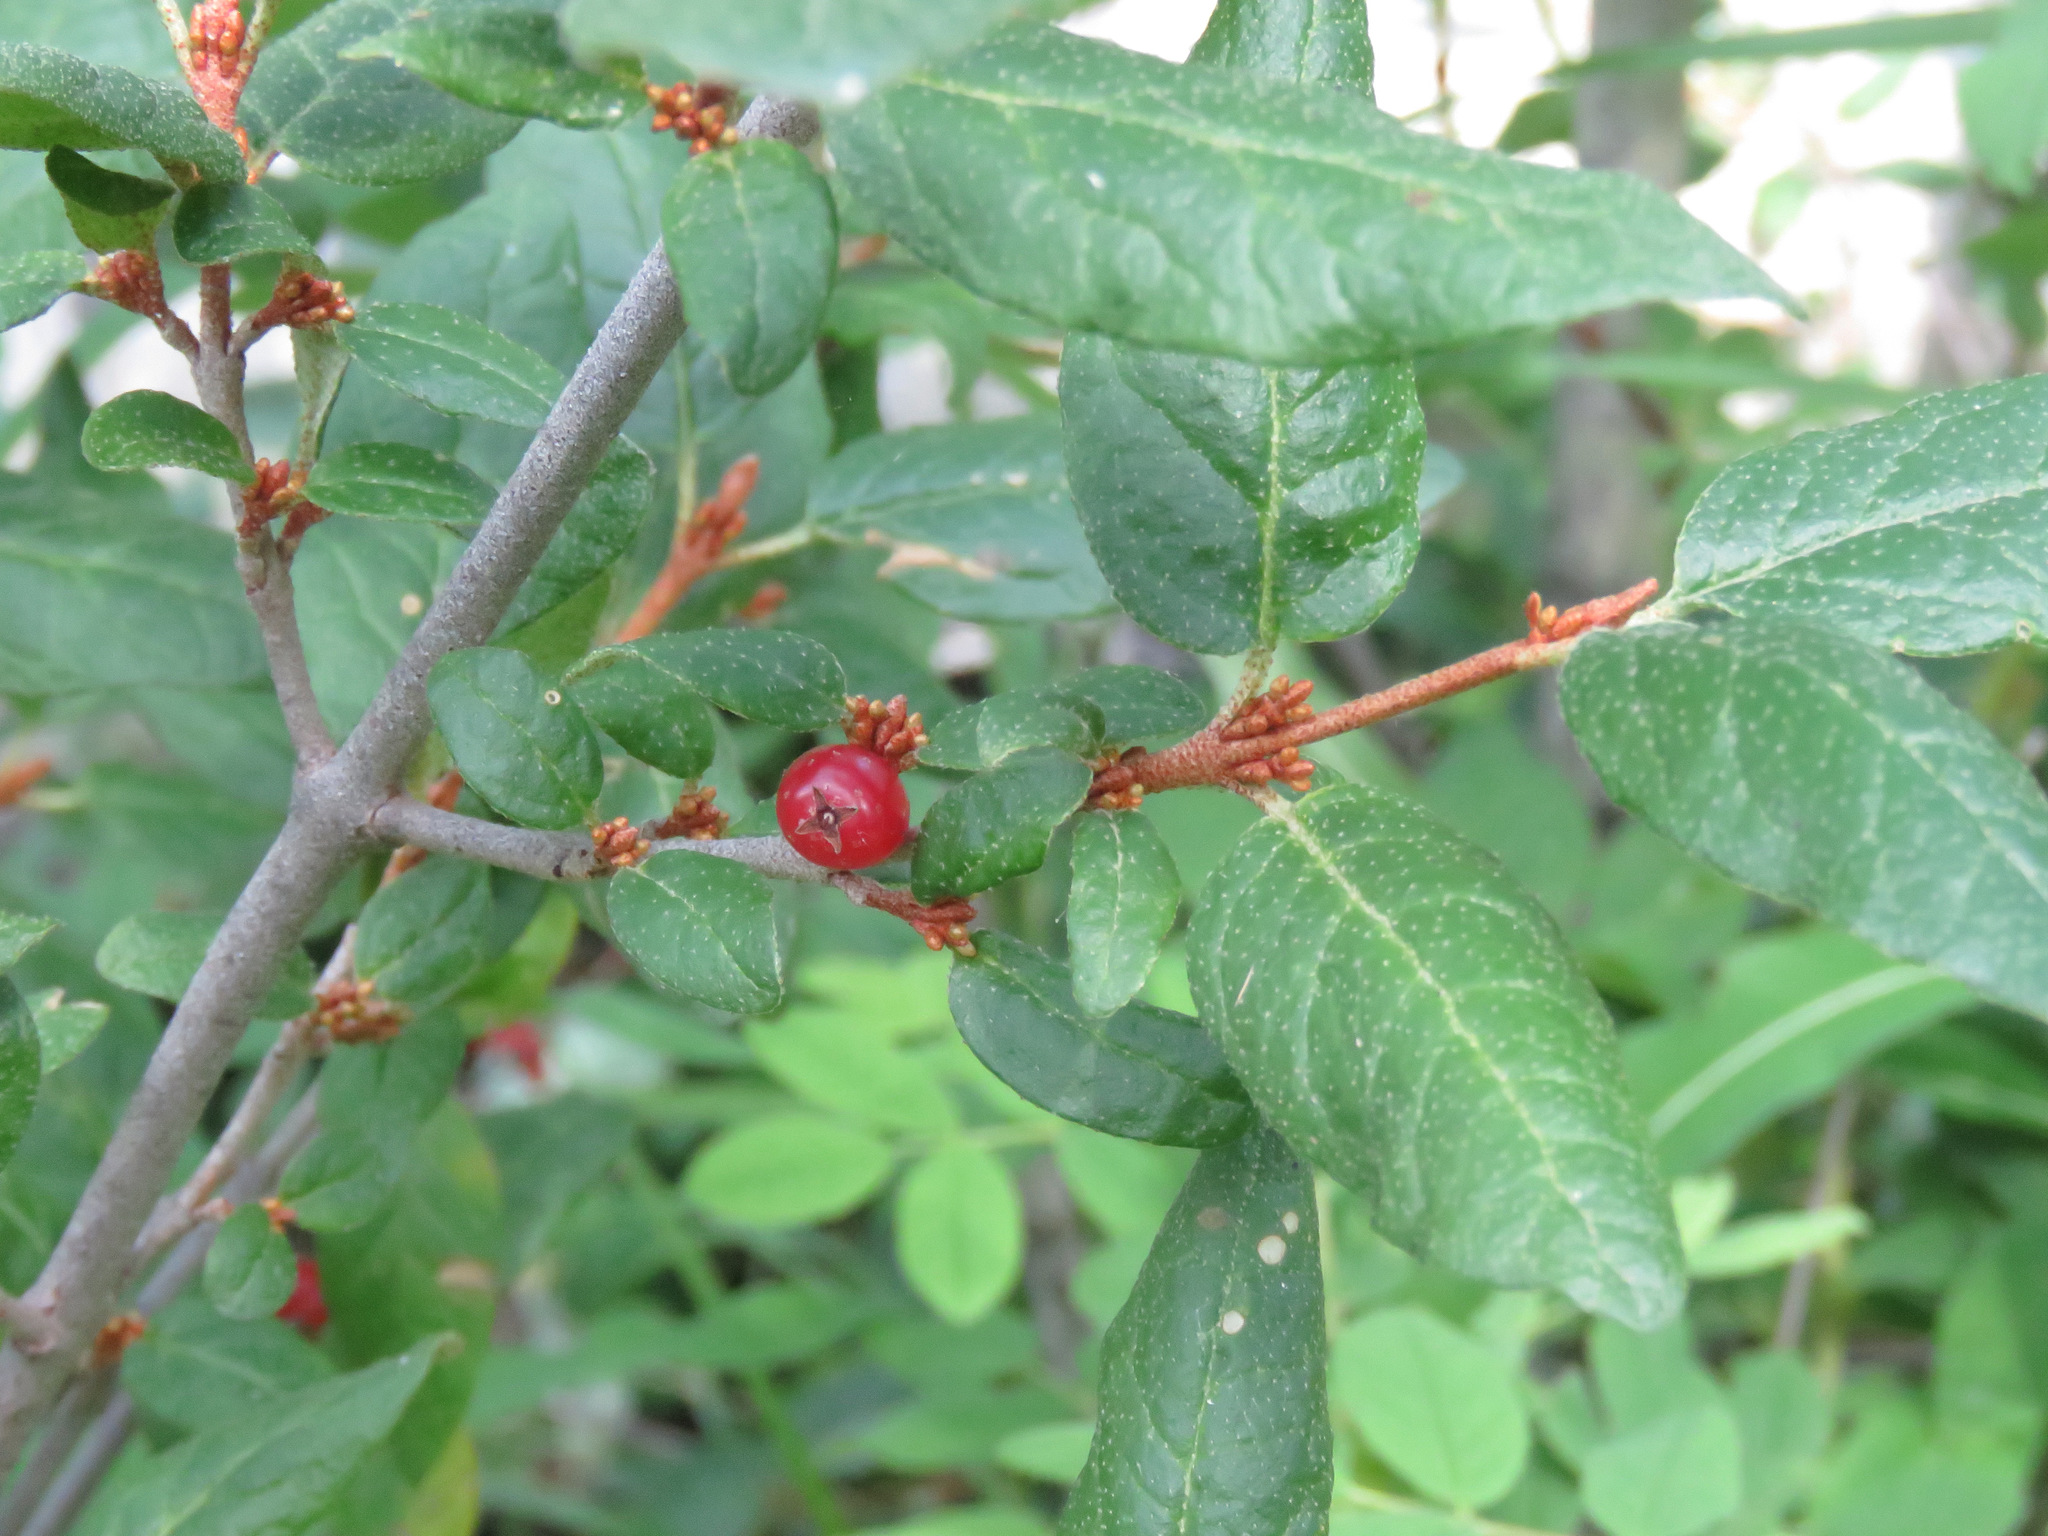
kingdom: Plantae
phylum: Tracheophyta
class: Magnoliopsida
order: Rosales
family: Elaeagnaceae
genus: Shepherdia
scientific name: Shepherdia canadensis
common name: Soapberry
